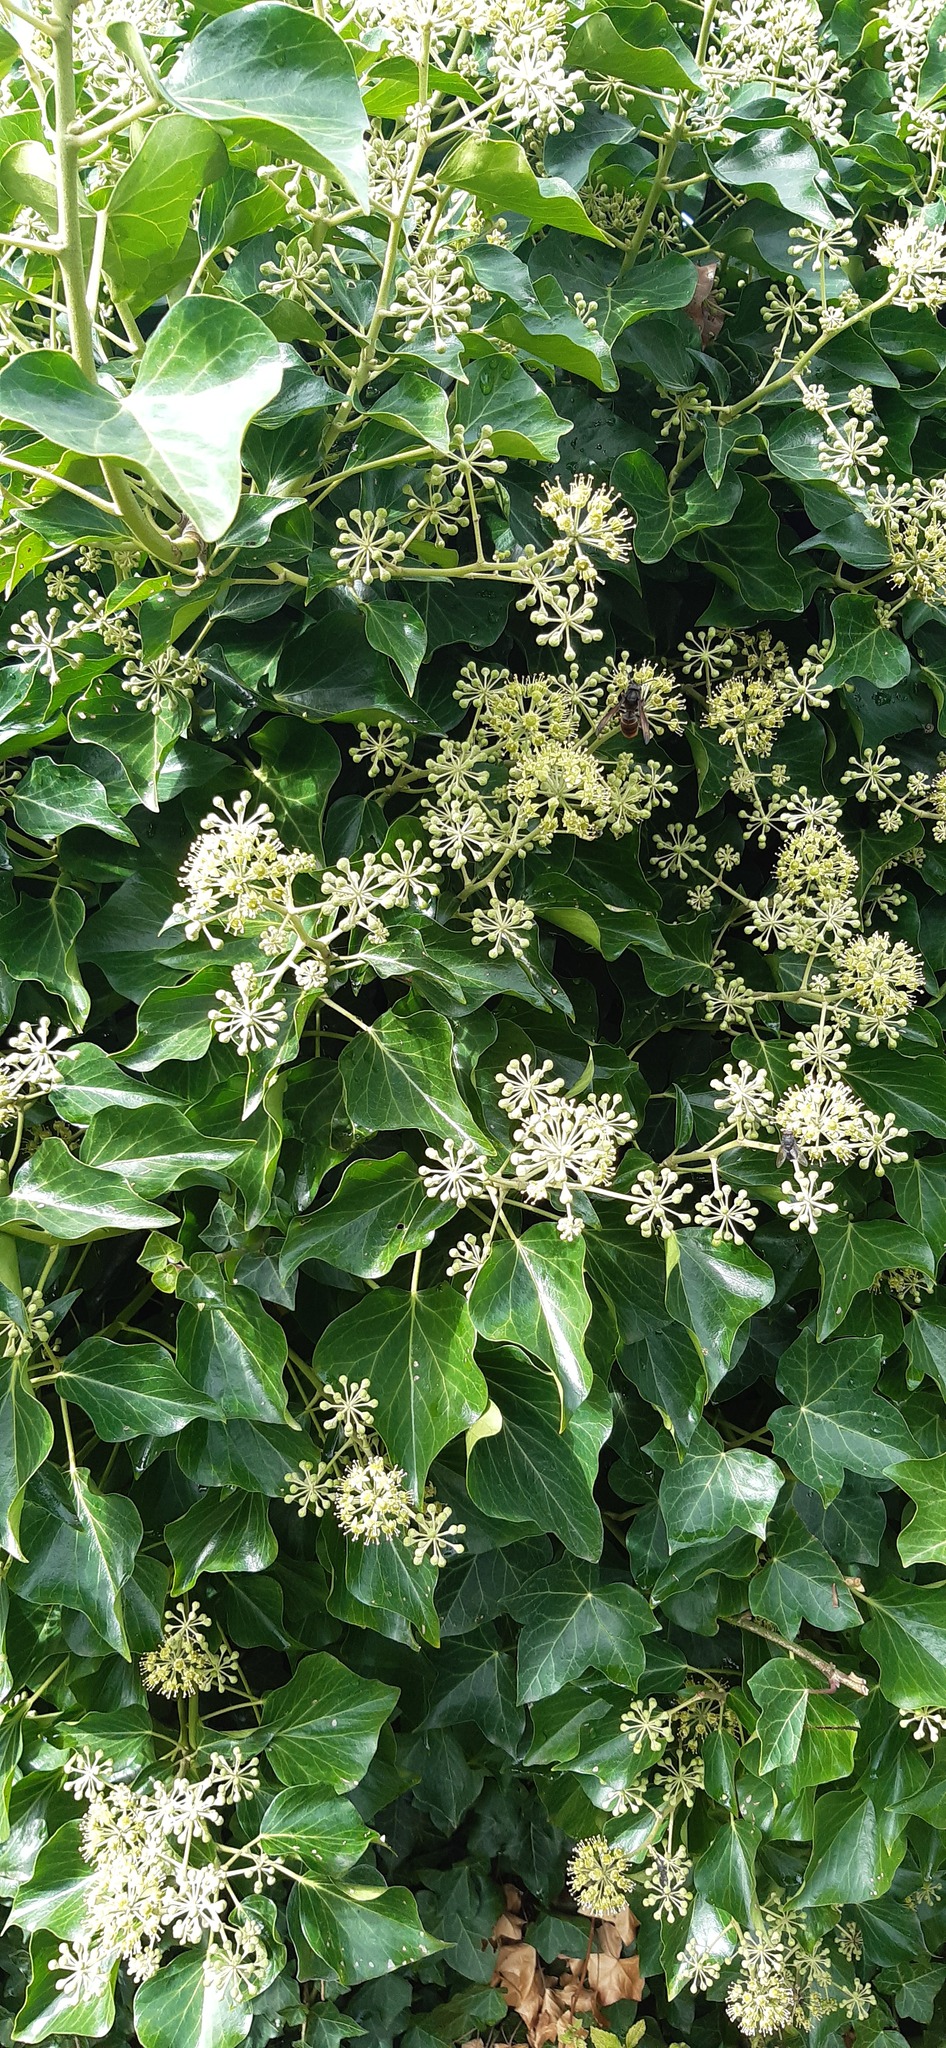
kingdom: Animalia
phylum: Arthropoda
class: Insecta
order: Hymenoptera
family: Vespidae
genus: Vespa
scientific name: Vespa velutina
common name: Asian hornet
